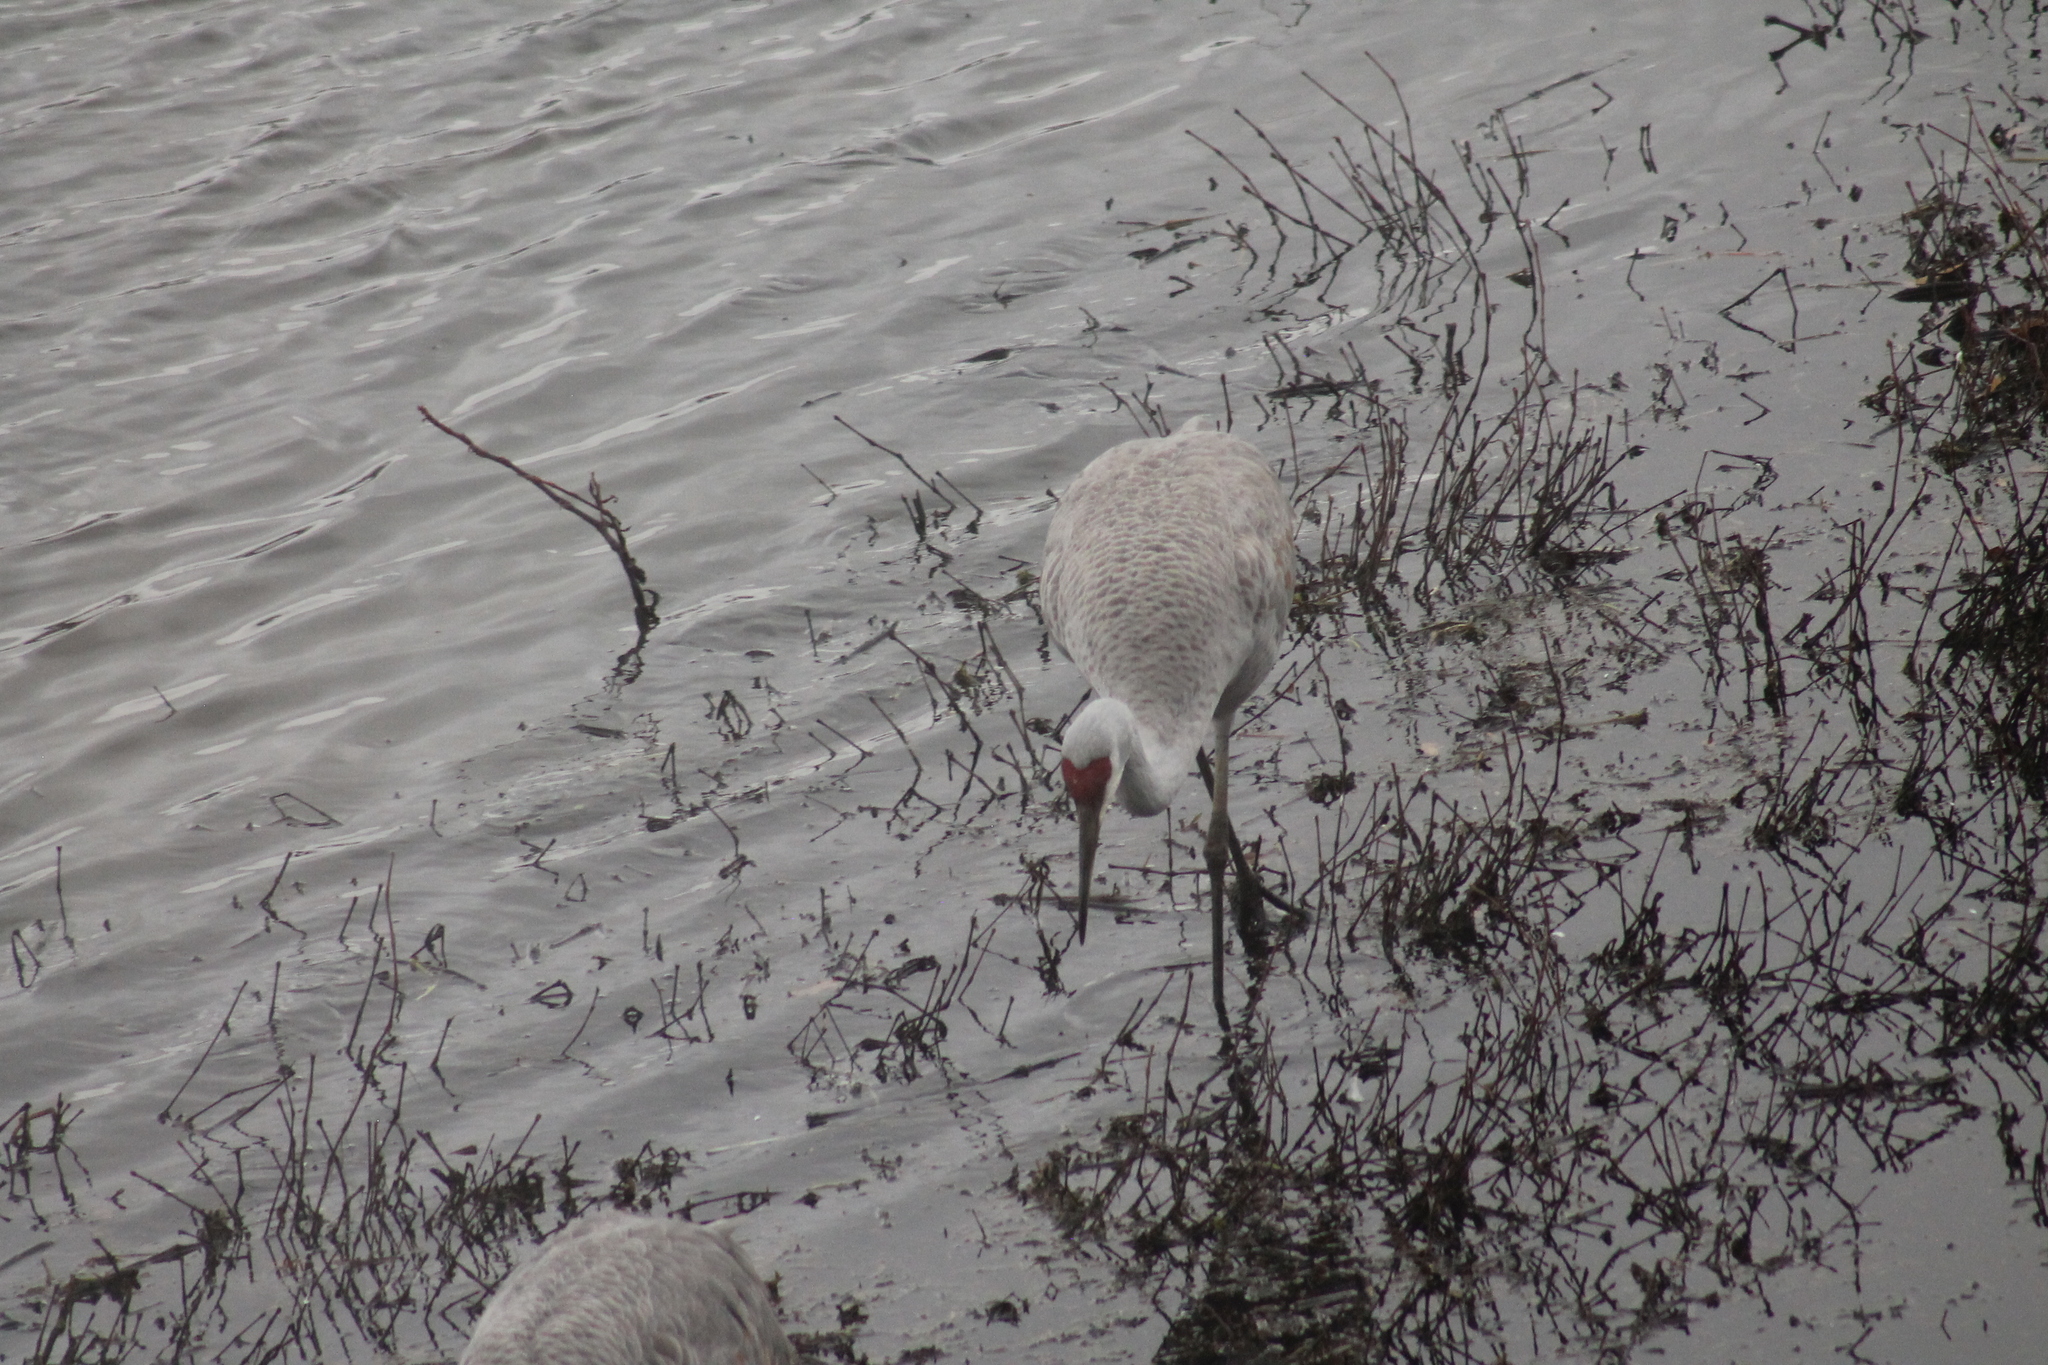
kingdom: Animalia
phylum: Chordata
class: Aves
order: Gruiformes
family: Gruidae
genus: Grus
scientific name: Grus canadensis
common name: Sandhill crane
